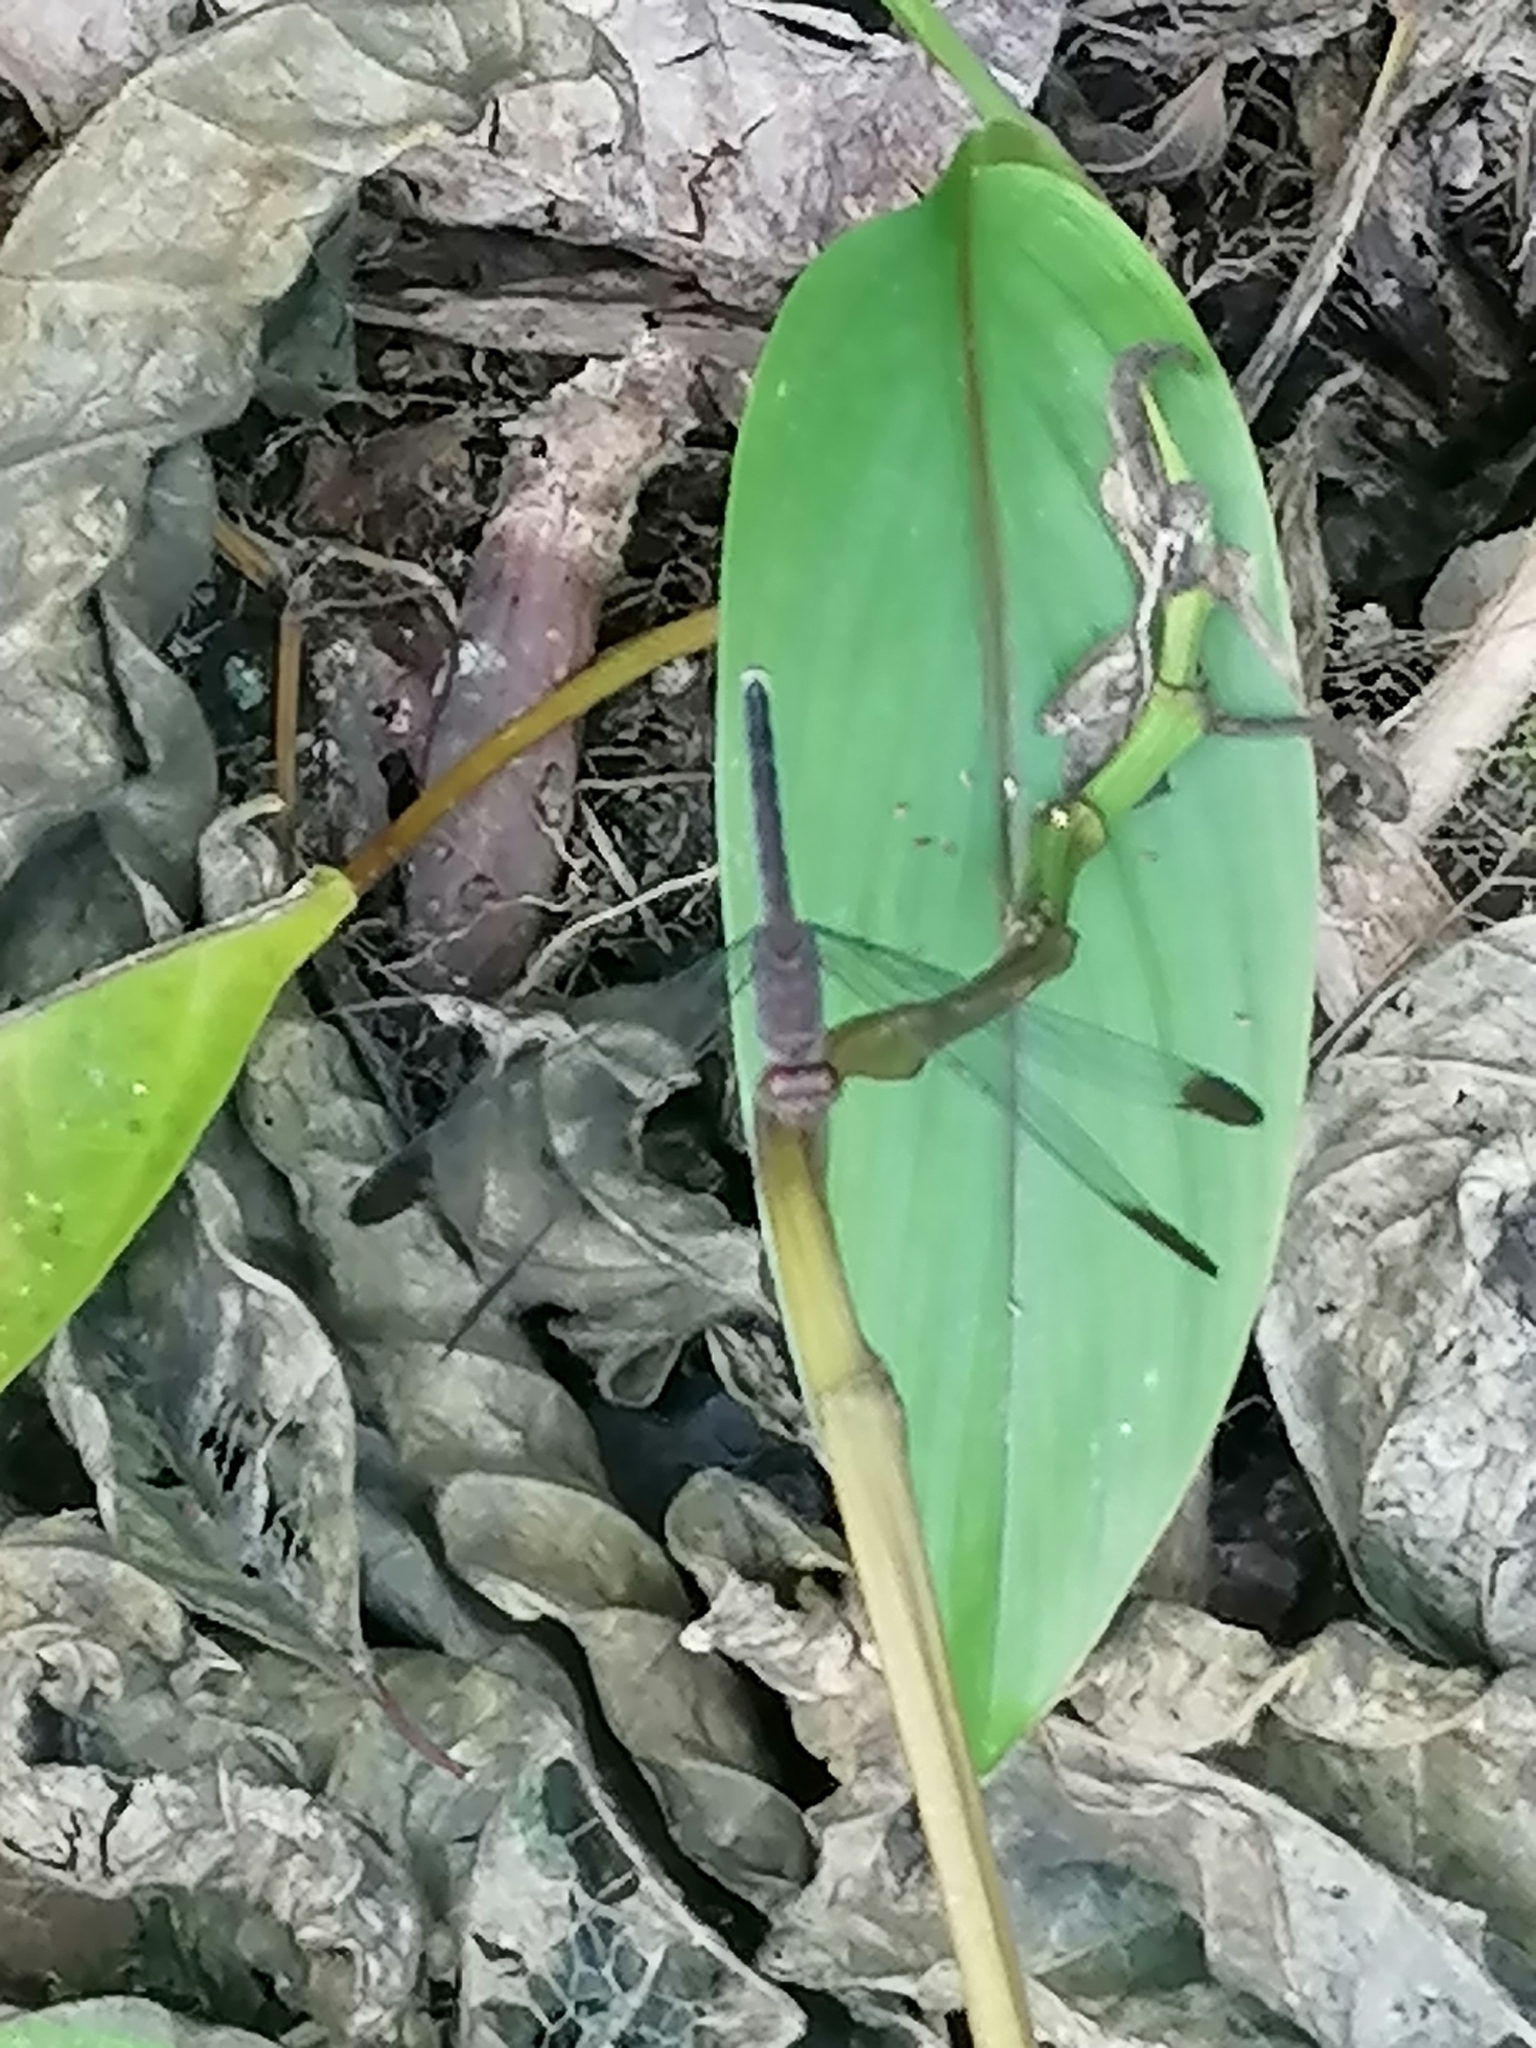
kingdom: Animalia
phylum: Arthropoda
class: Insecta
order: Odonata
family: Libellulidae
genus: Uracis
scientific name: Uracis imbuta
